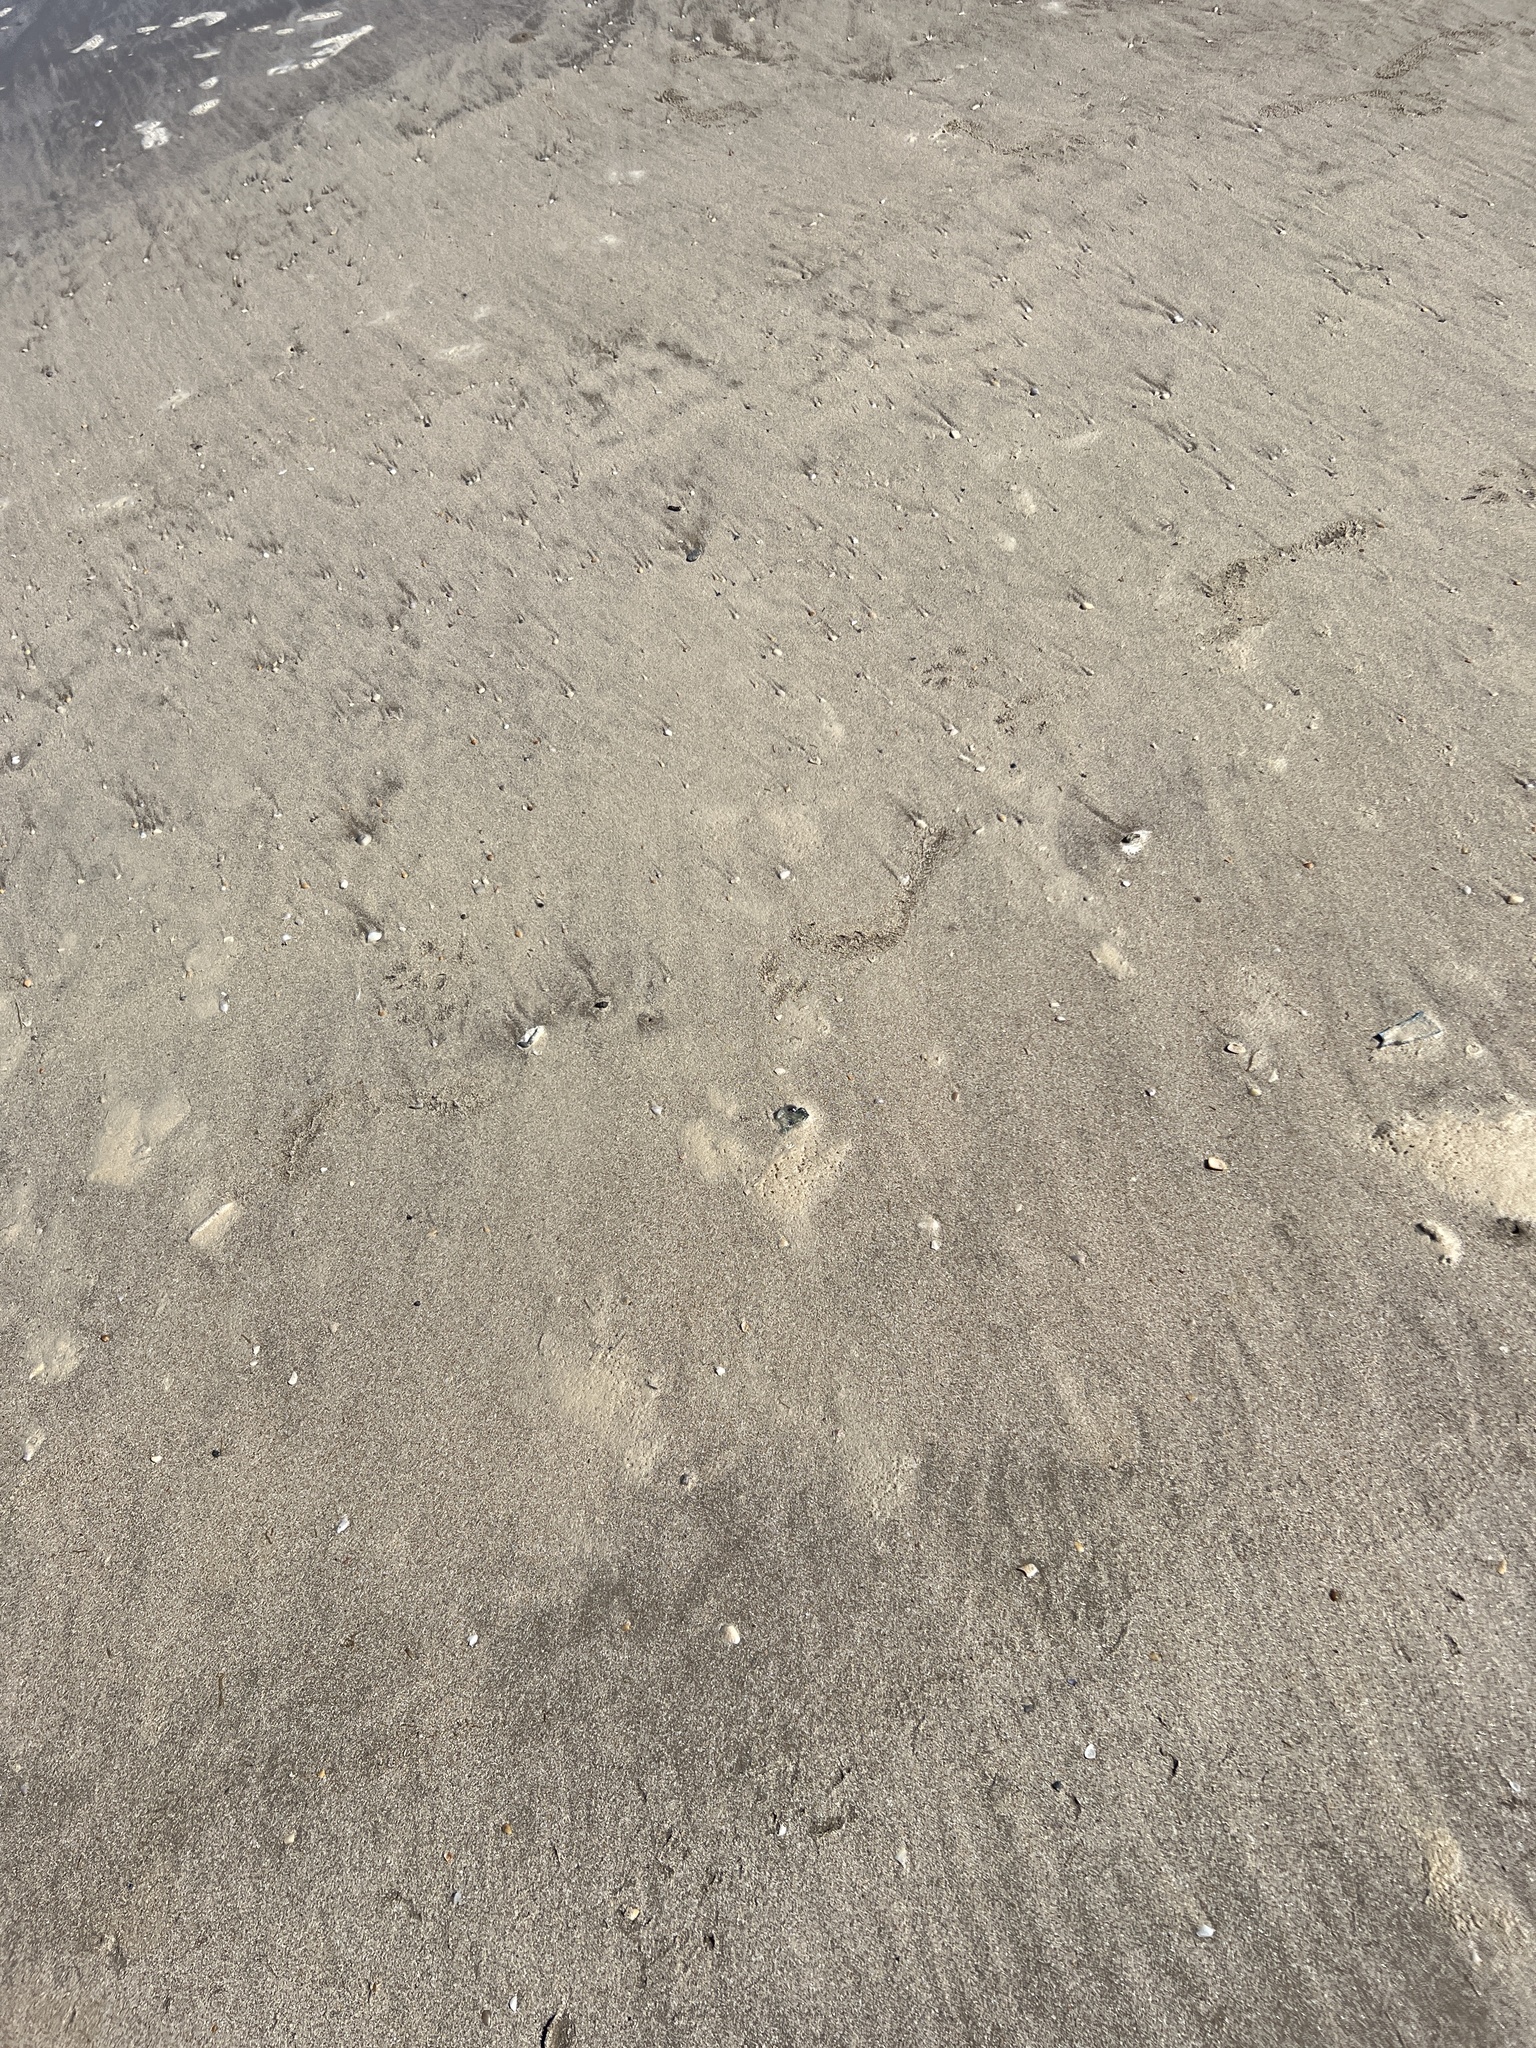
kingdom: Animalia
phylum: Cnidaria
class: Hydrozoa
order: Siphonophorae
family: Physaliidae
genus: Physalia
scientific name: Physalia physalis
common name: Portuguese man-of-war
